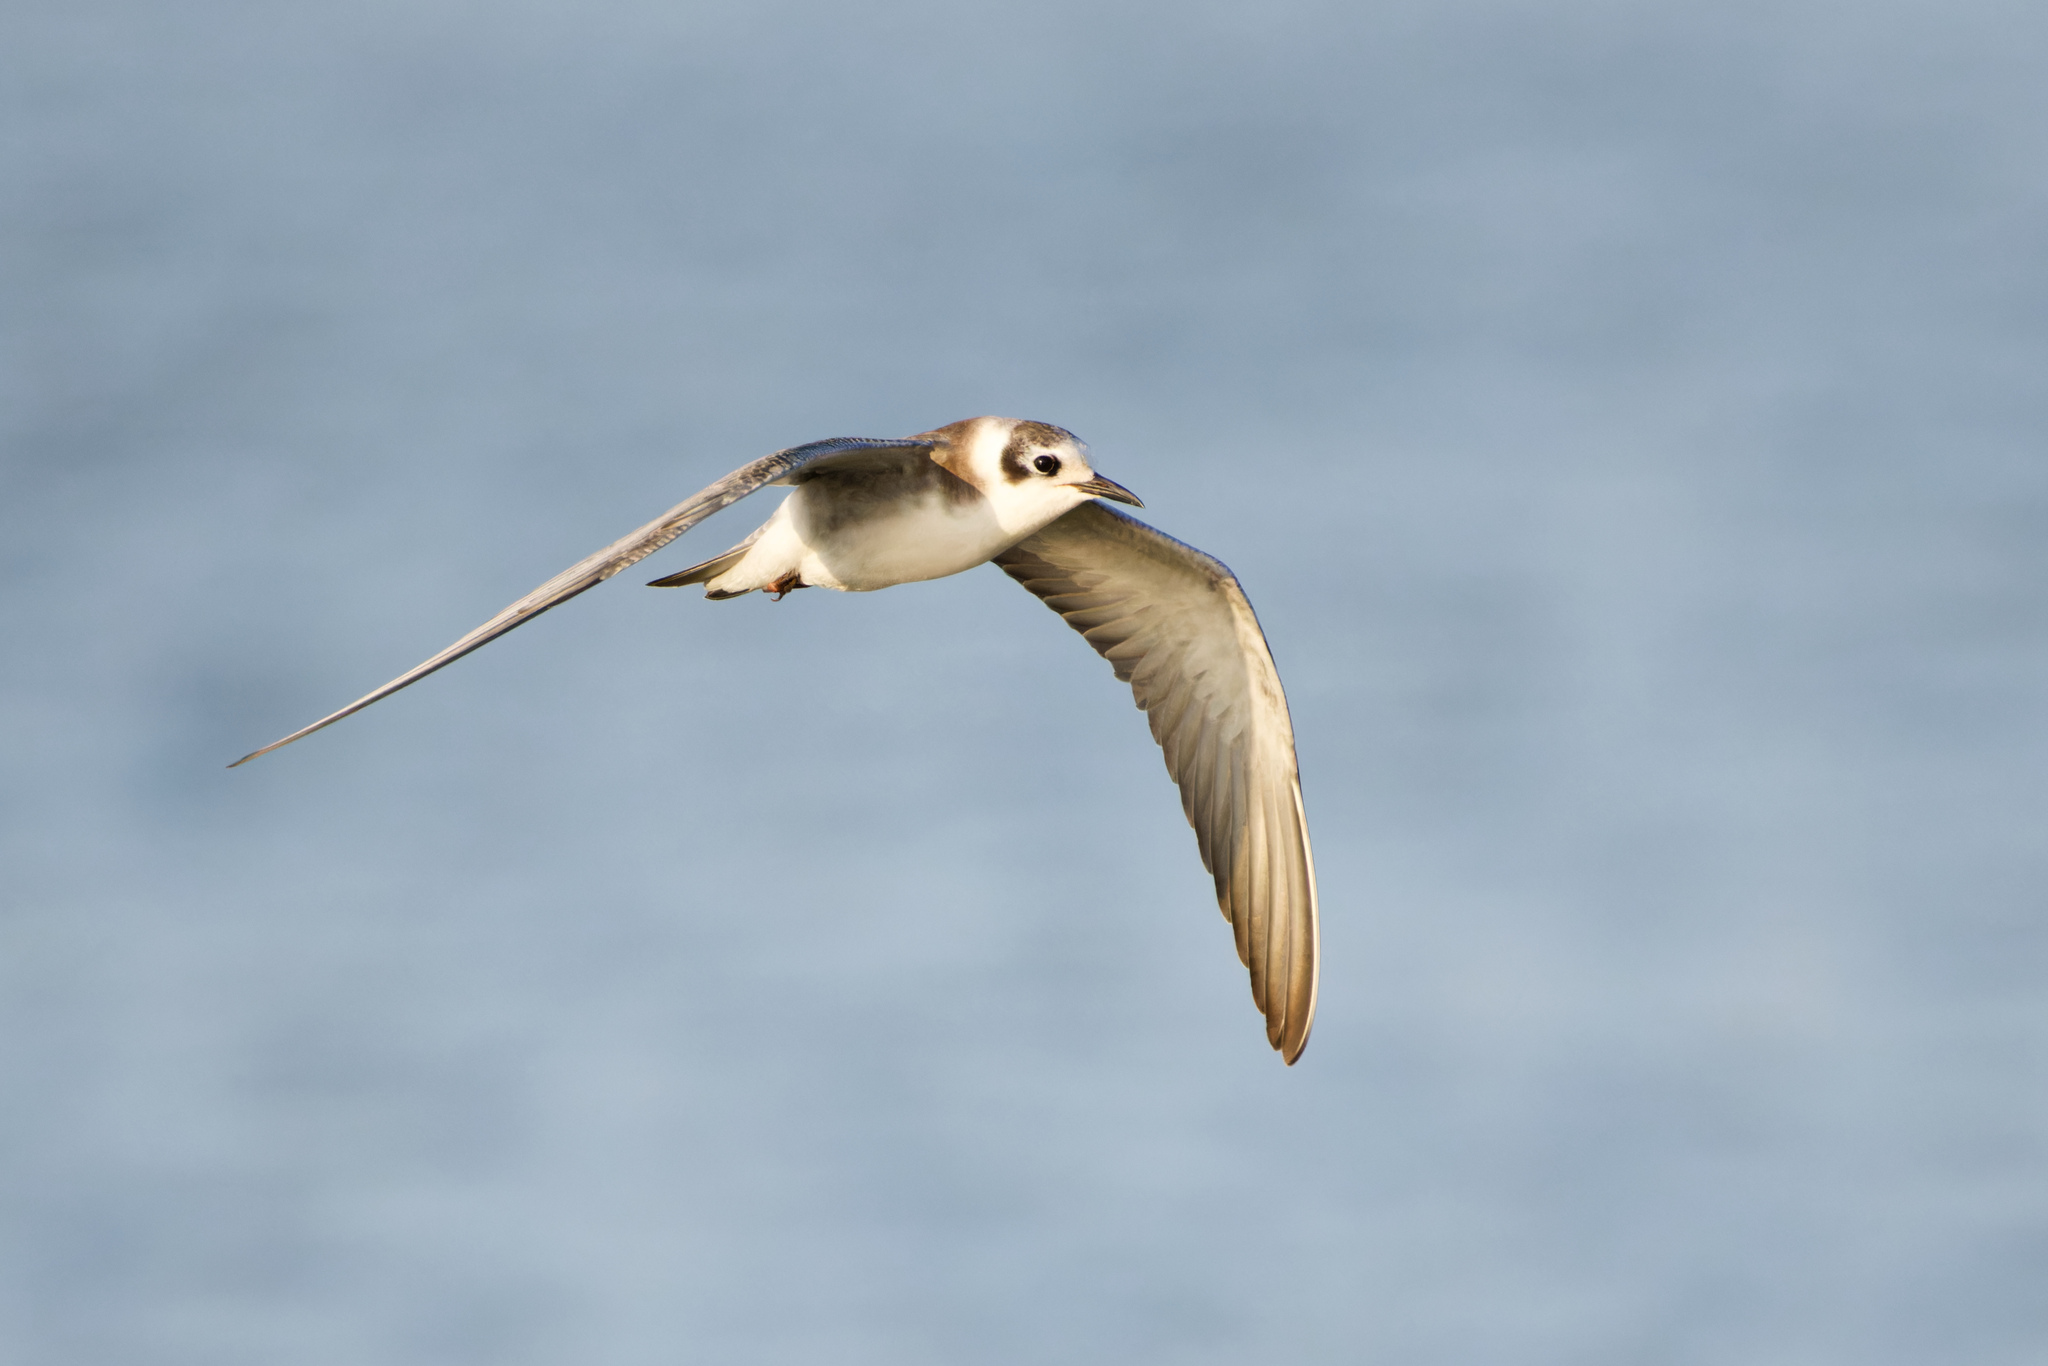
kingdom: Animalia
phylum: Chordata
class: Aves
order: Charadriiformes
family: Laridae
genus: Chlidonias
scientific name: Chlidonias niger
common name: Black tern
